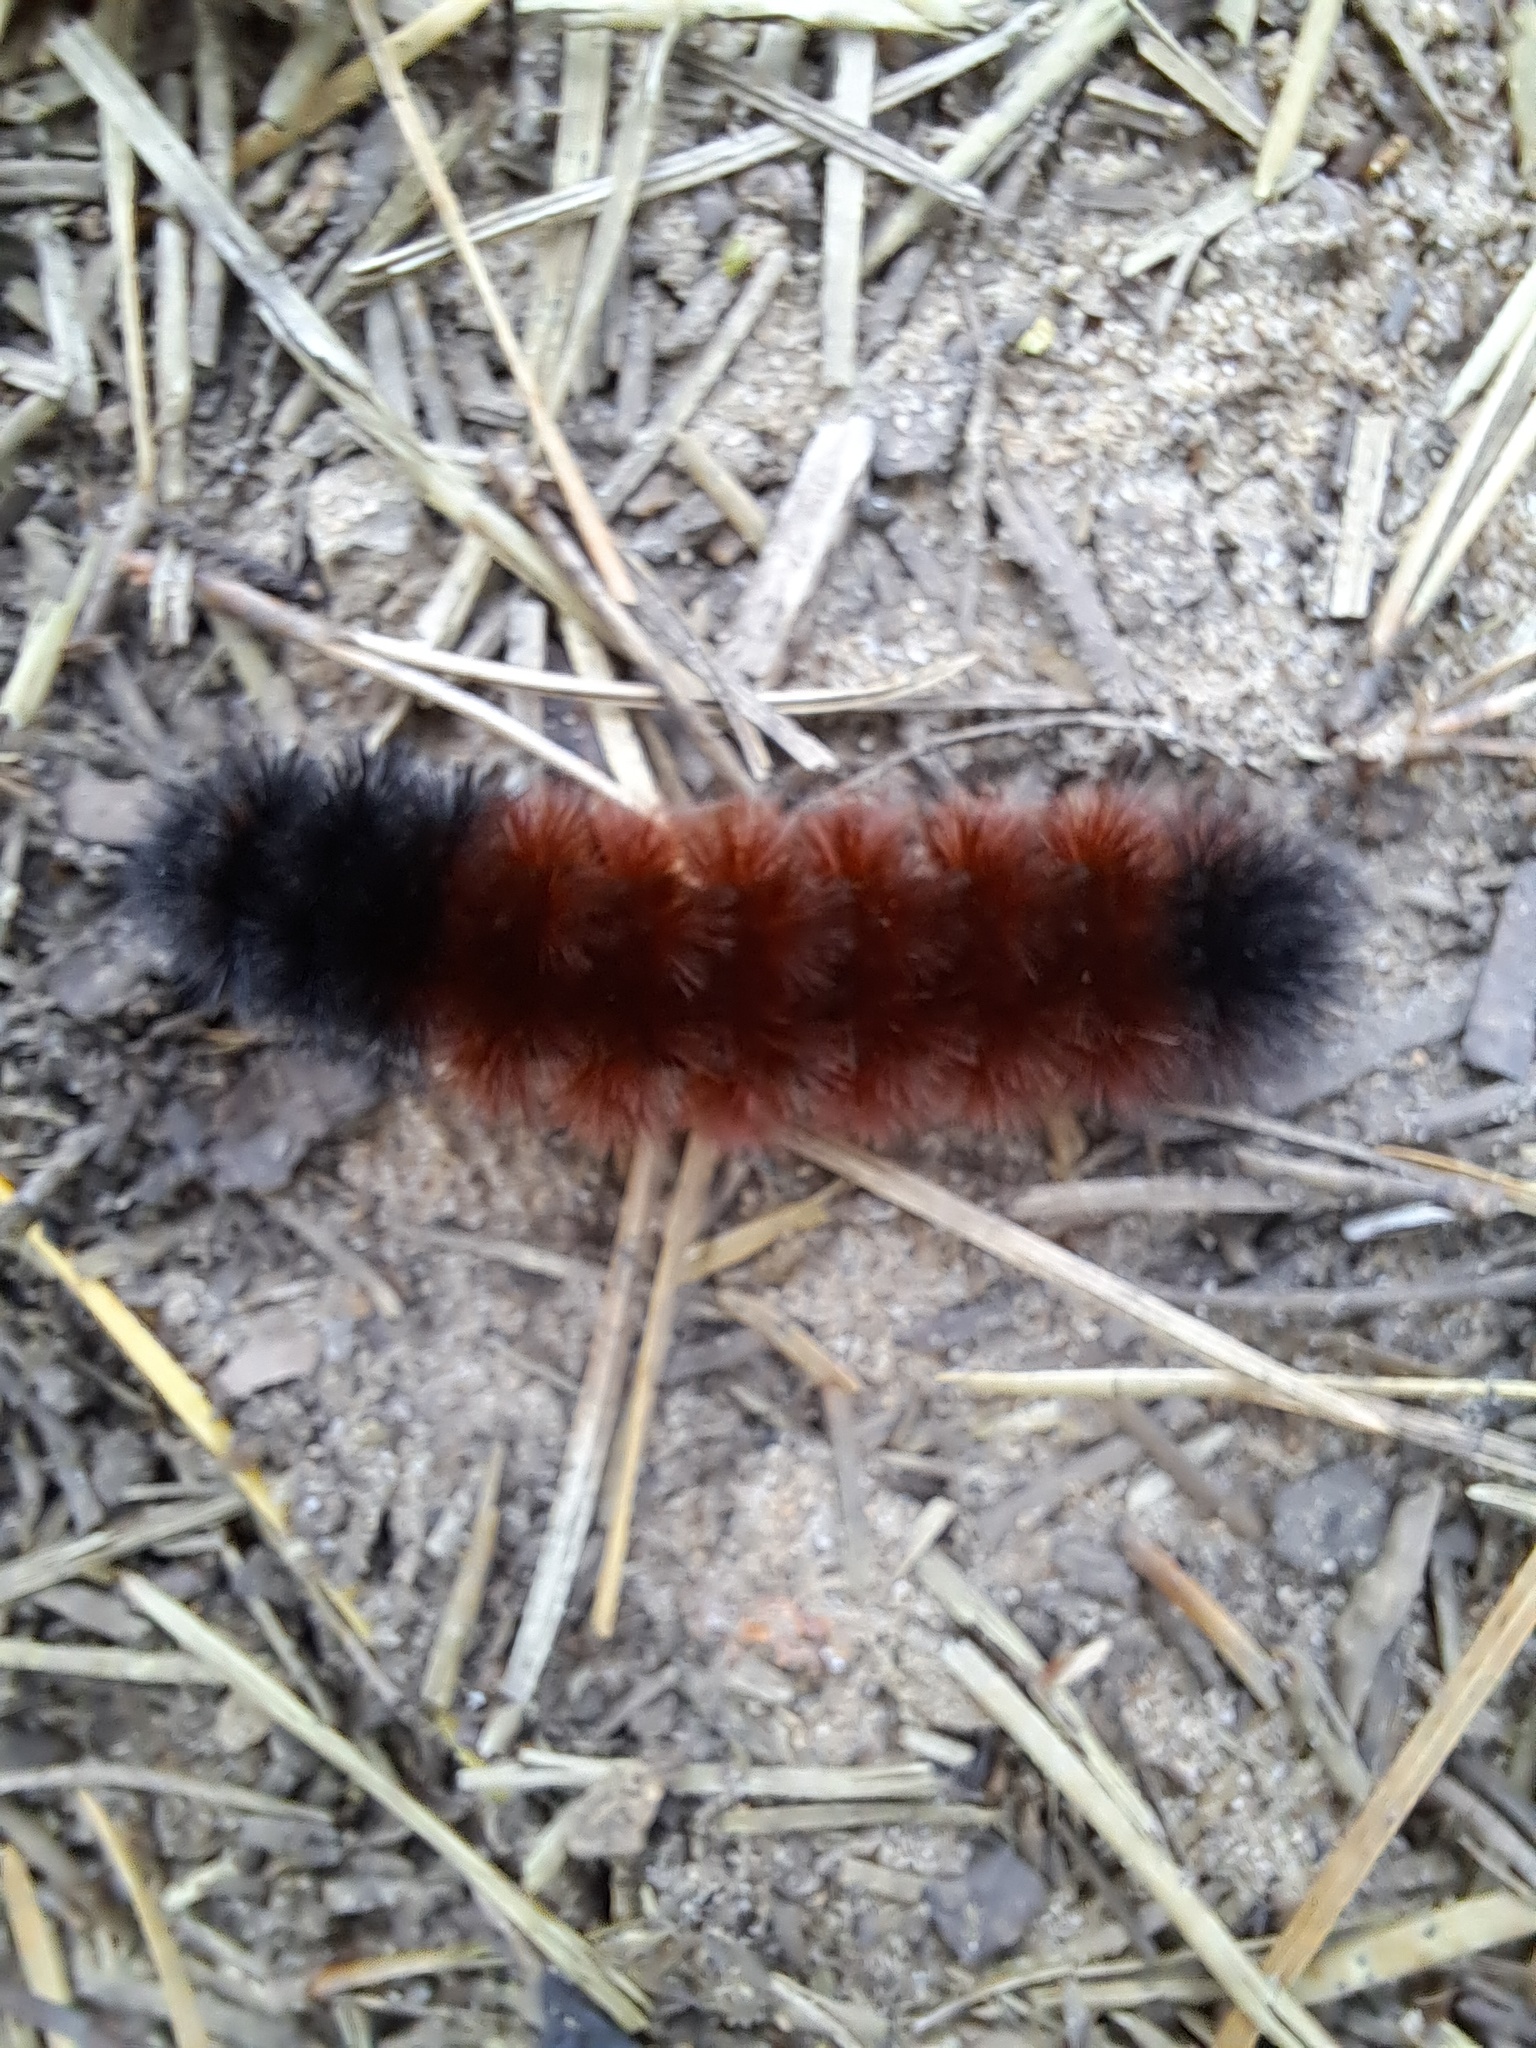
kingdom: Animalia
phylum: Arthropoda
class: Insecta
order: Lepidoptera
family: Erebidae
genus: Pyrrharctia
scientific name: Pyrrharctia isabella
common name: Isabella tiger moth
